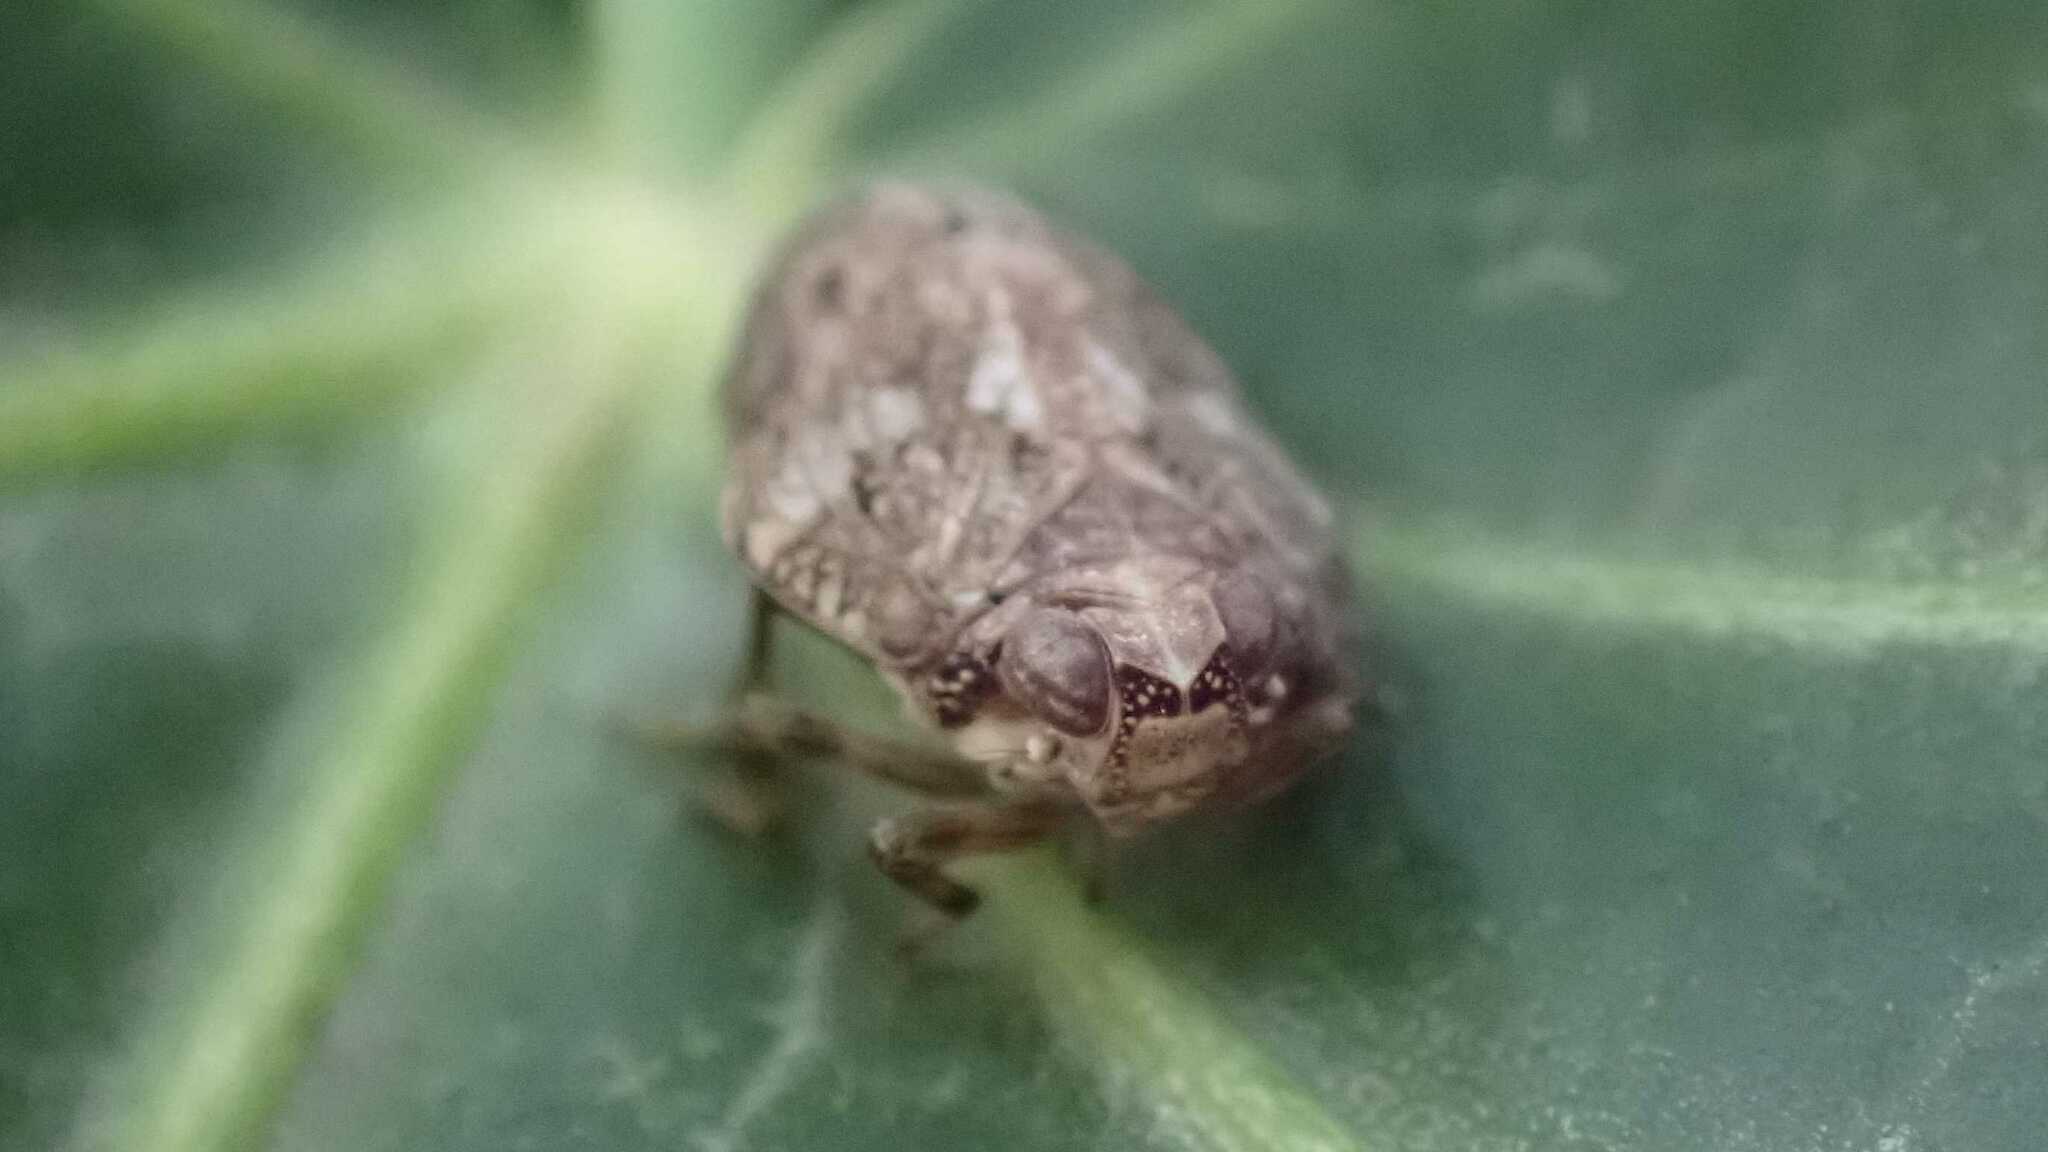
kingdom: Animalia
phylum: Arthropoda
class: Insecta
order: Hemiptera
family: Issidae
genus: Issus
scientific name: Issus coleoptratus
